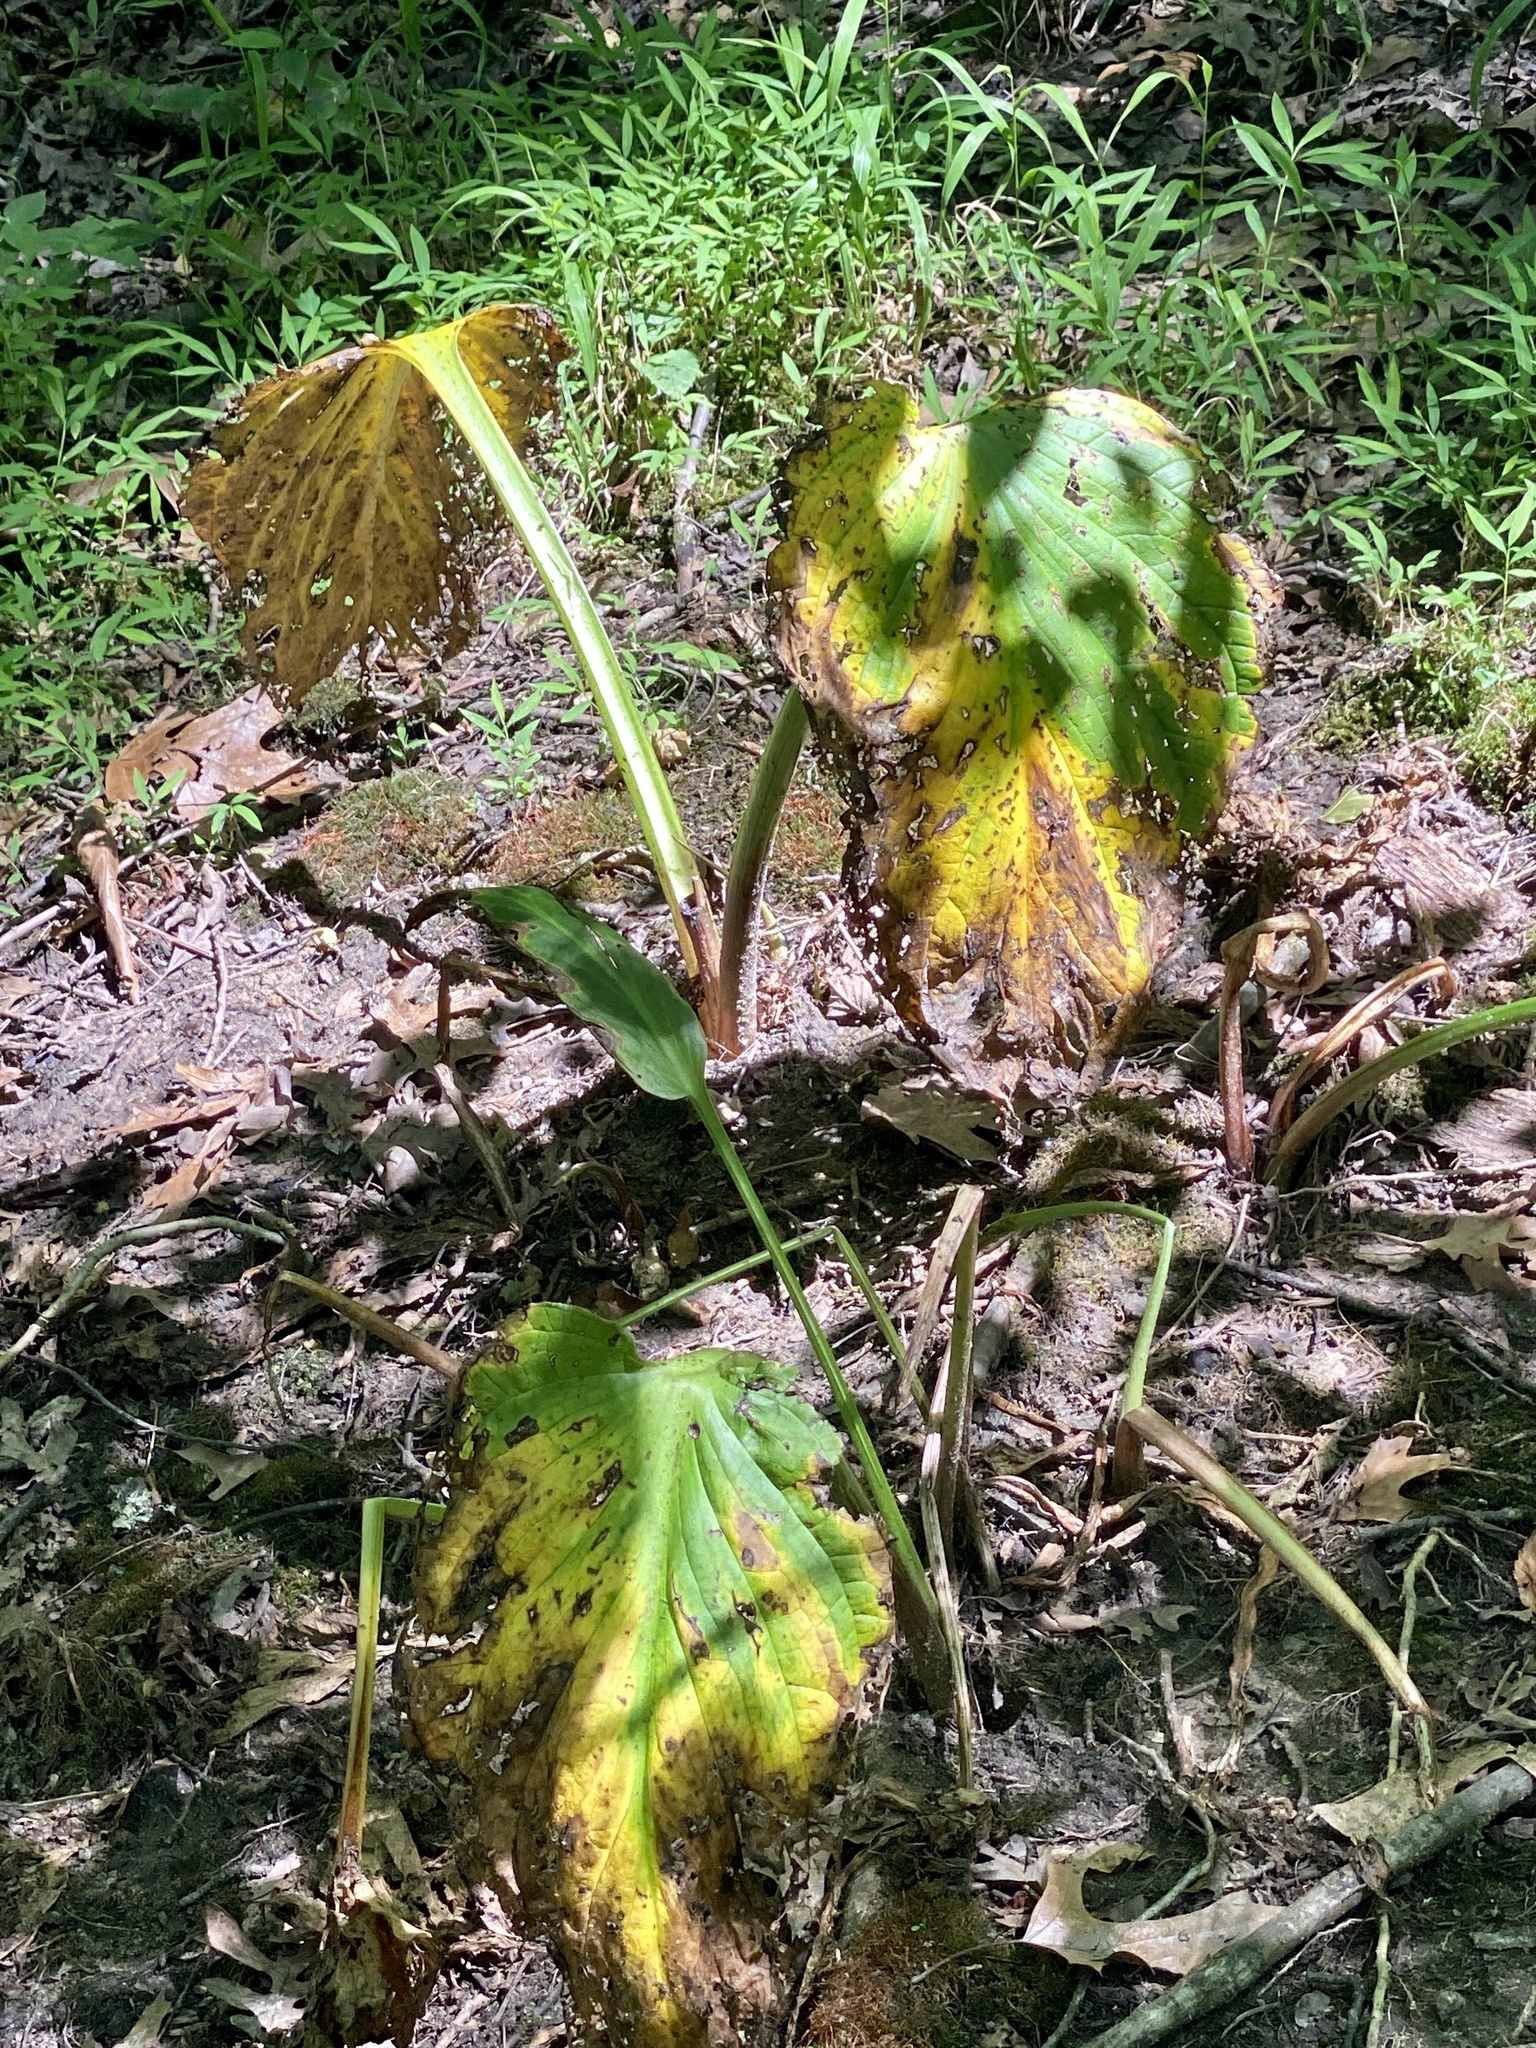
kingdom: Plantae
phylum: Tracheophyta
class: Liliopsida
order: Alismatales
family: Araceae
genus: Symplocarpus
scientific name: Symplocarpus foetidus
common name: Eastern skunk cabbage
